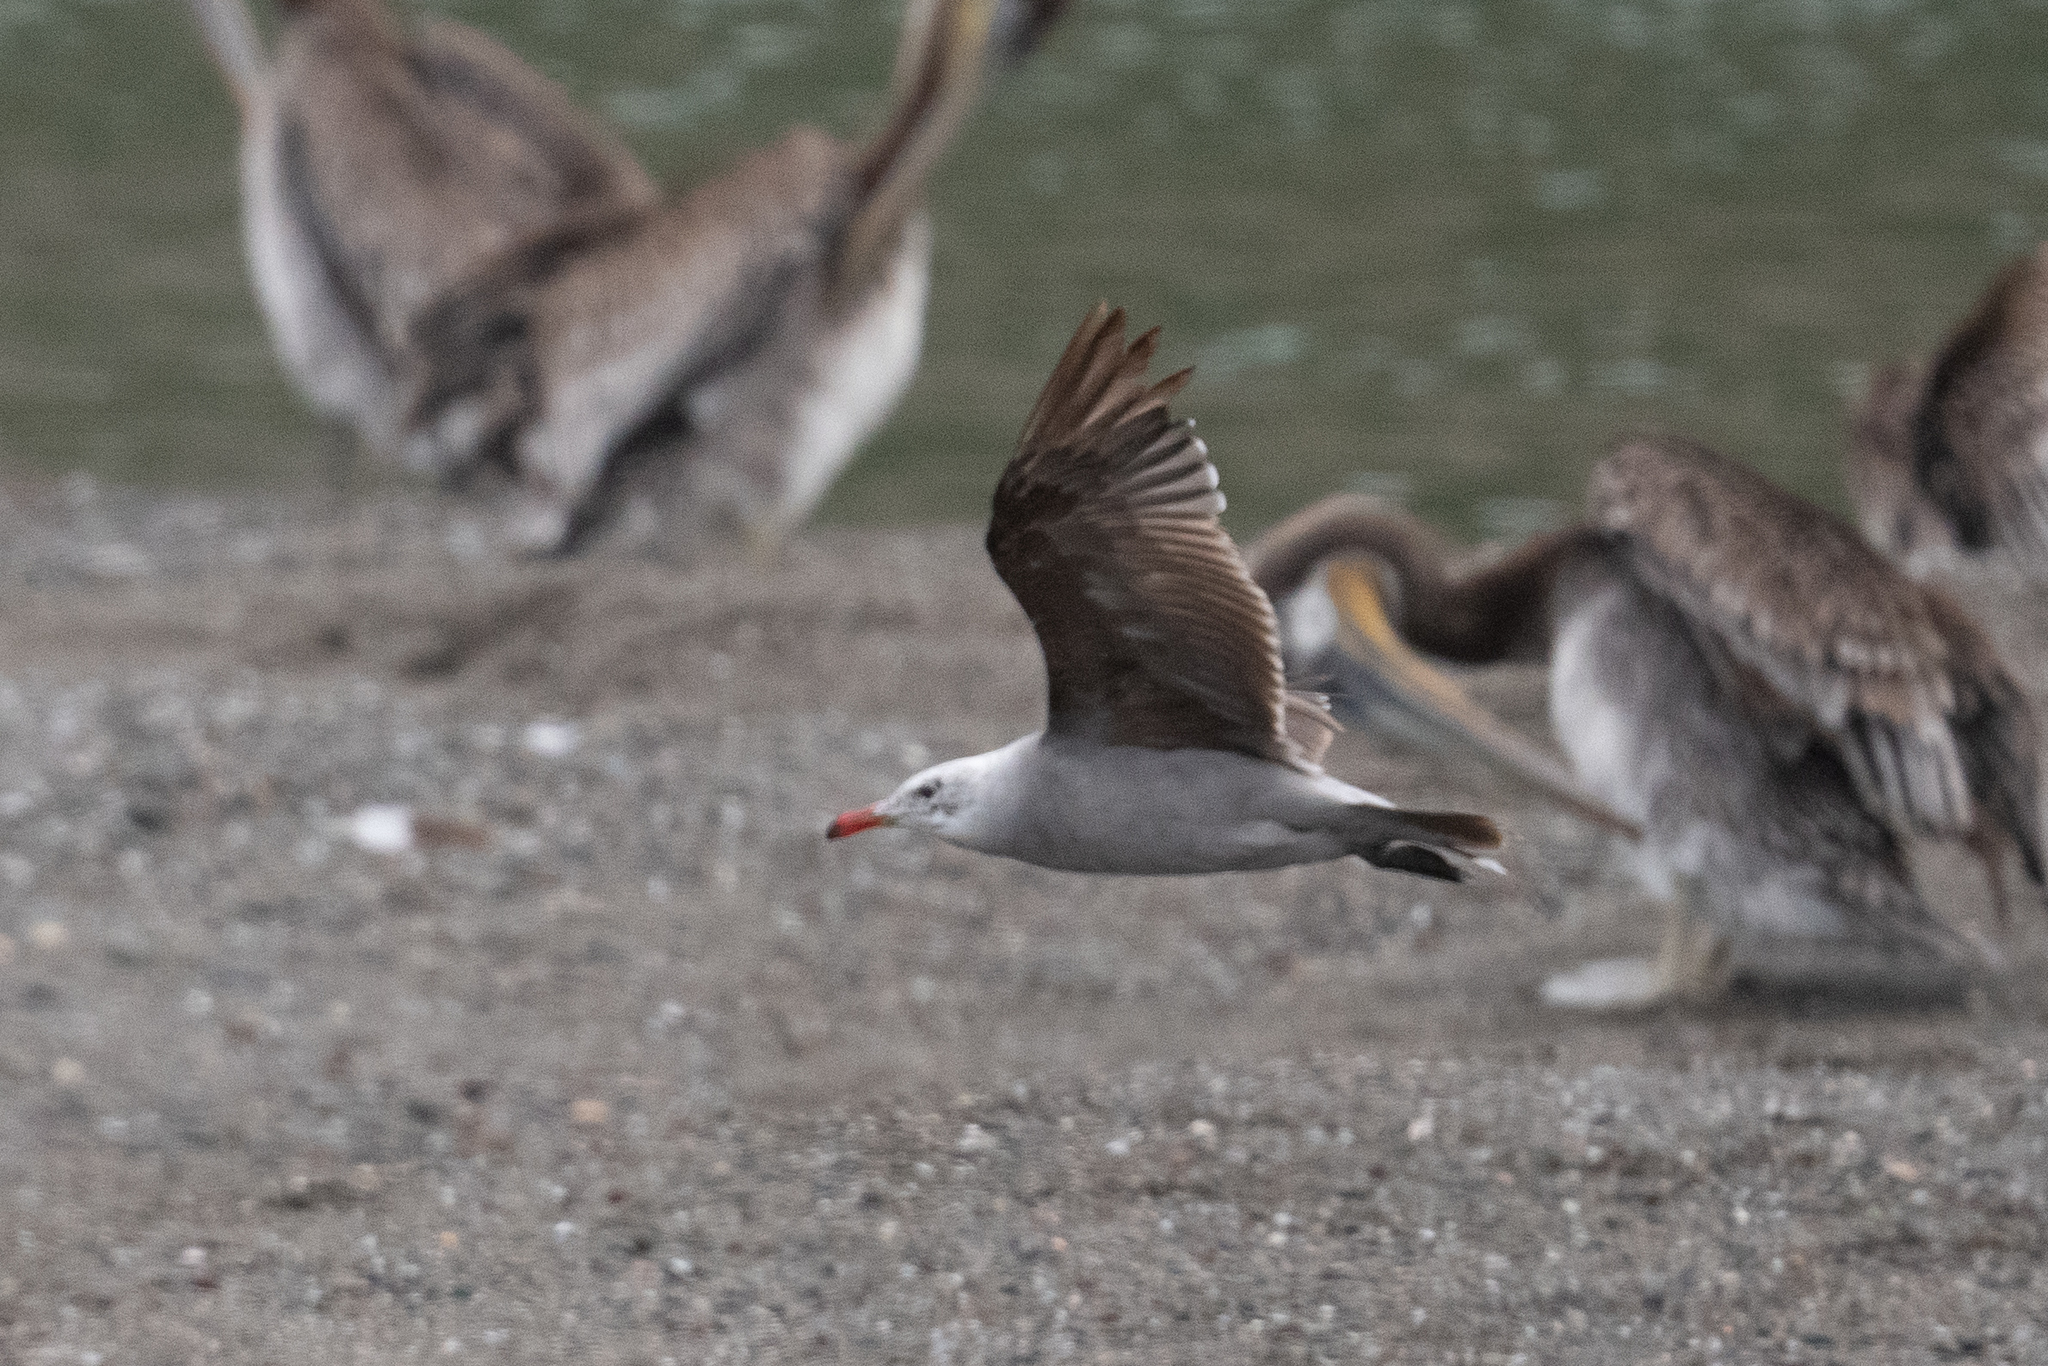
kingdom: Animalia
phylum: Chordata
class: Aves
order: Charadriiformes
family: Laridae
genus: Larus
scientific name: Larus heermanni
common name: Heermann's gull
